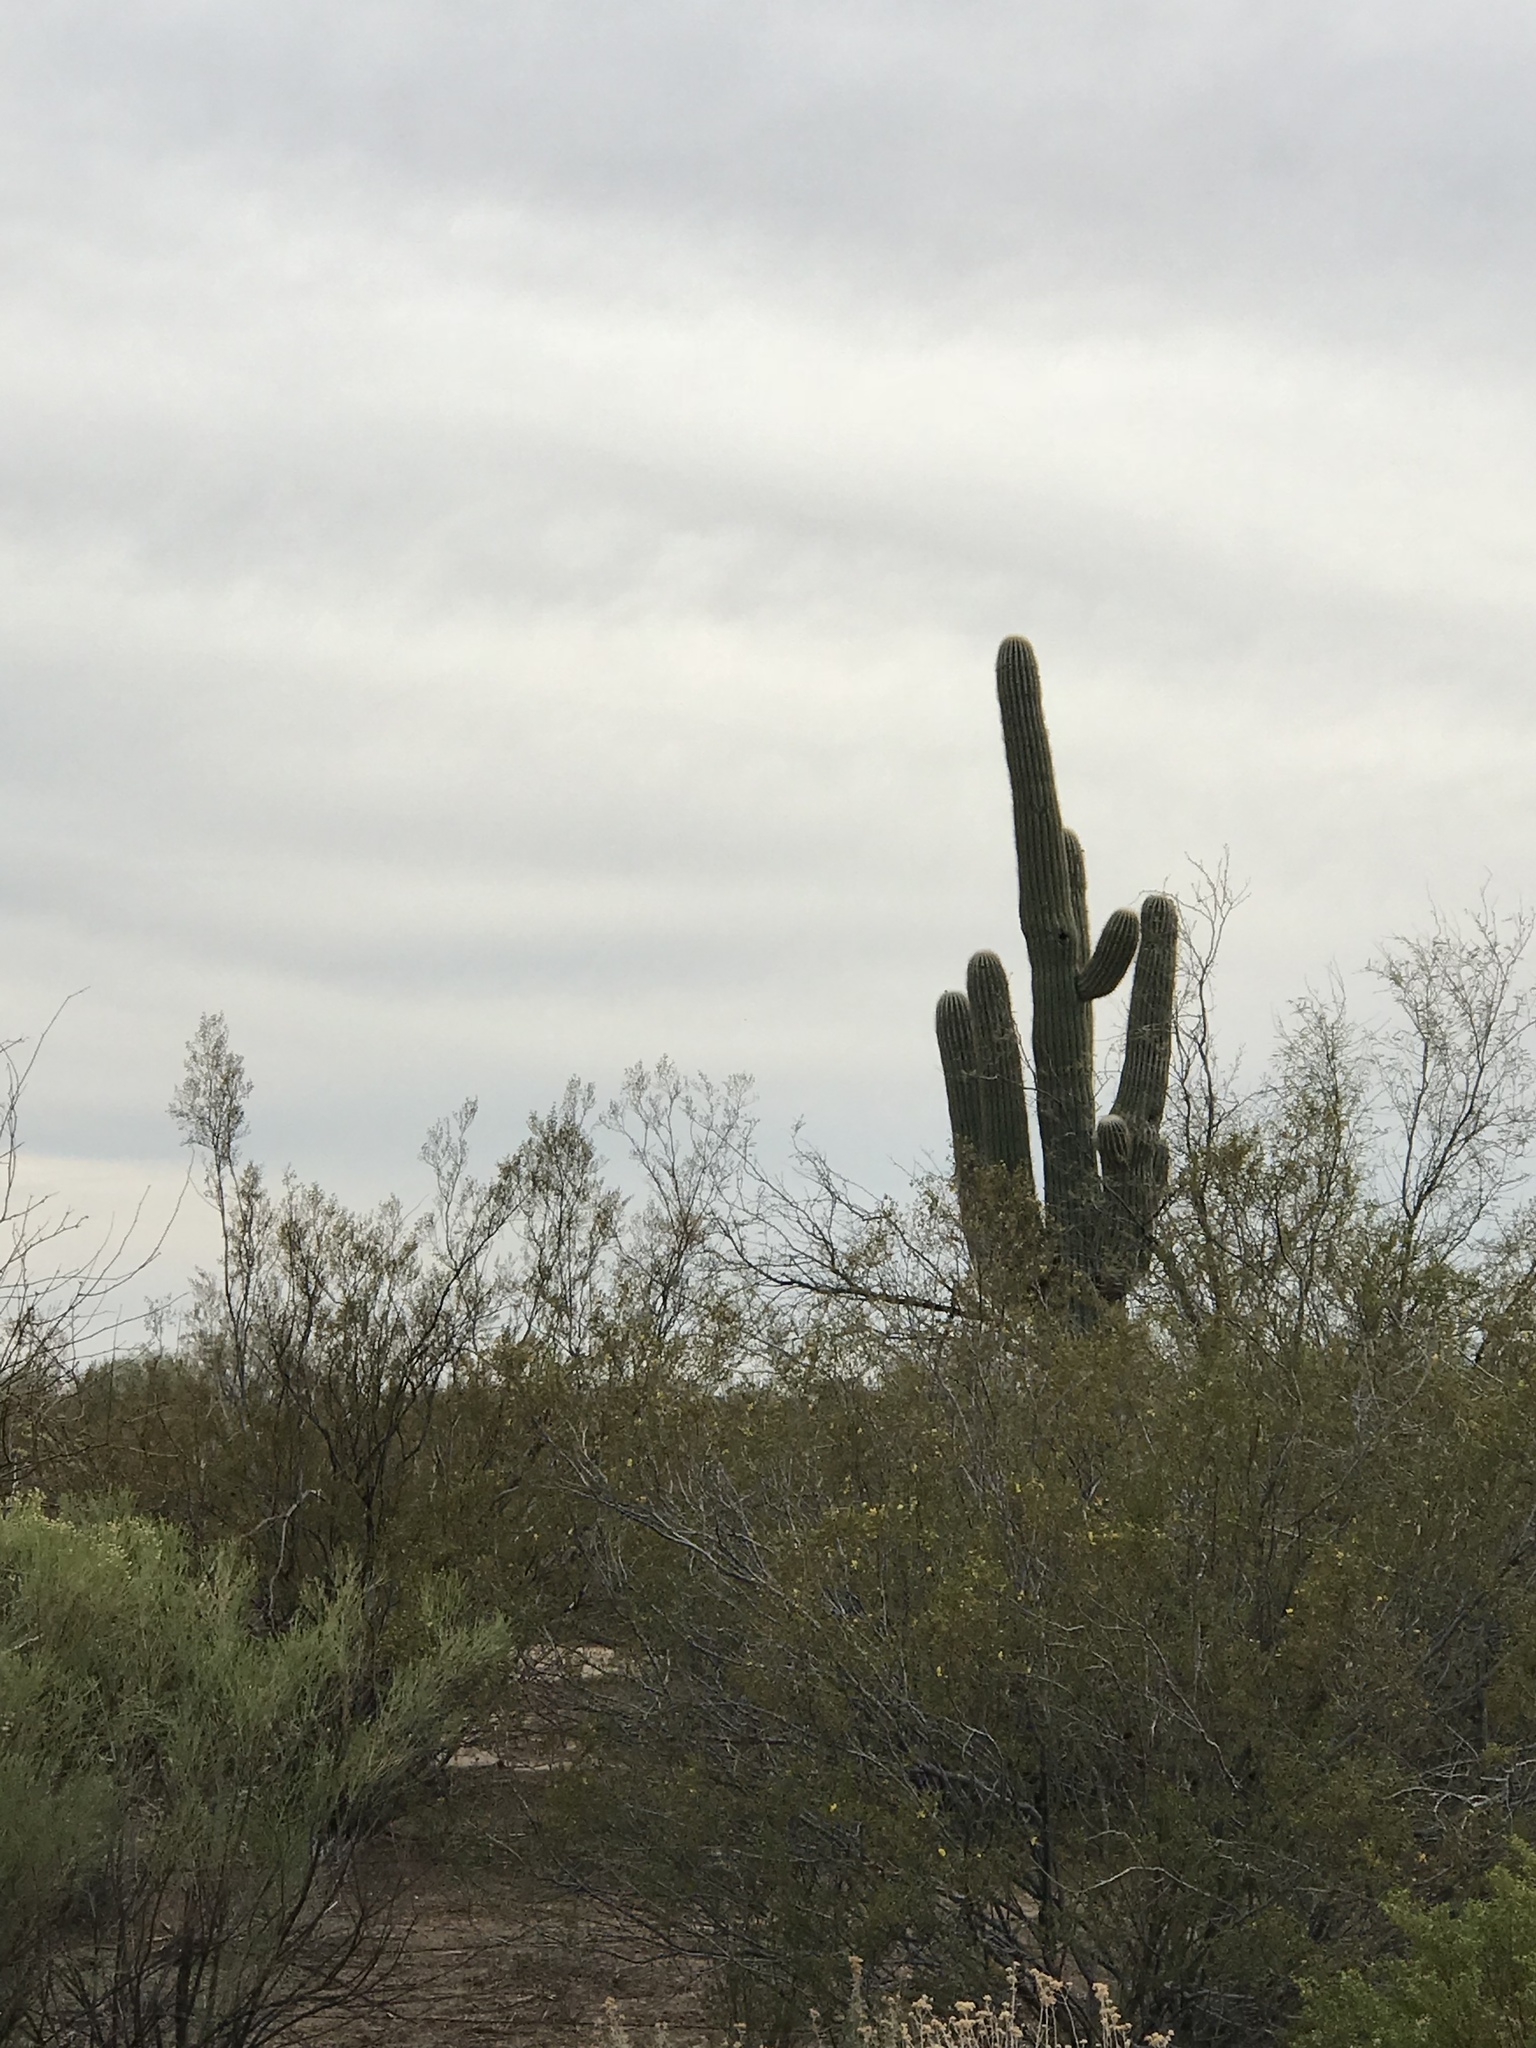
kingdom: Plantae
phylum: Tracheophyta
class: Magnoliopsida
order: Caryophyllales
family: Cactaceae
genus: Carnegiea
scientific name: Carnegiea gigantea
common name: Saguaro
